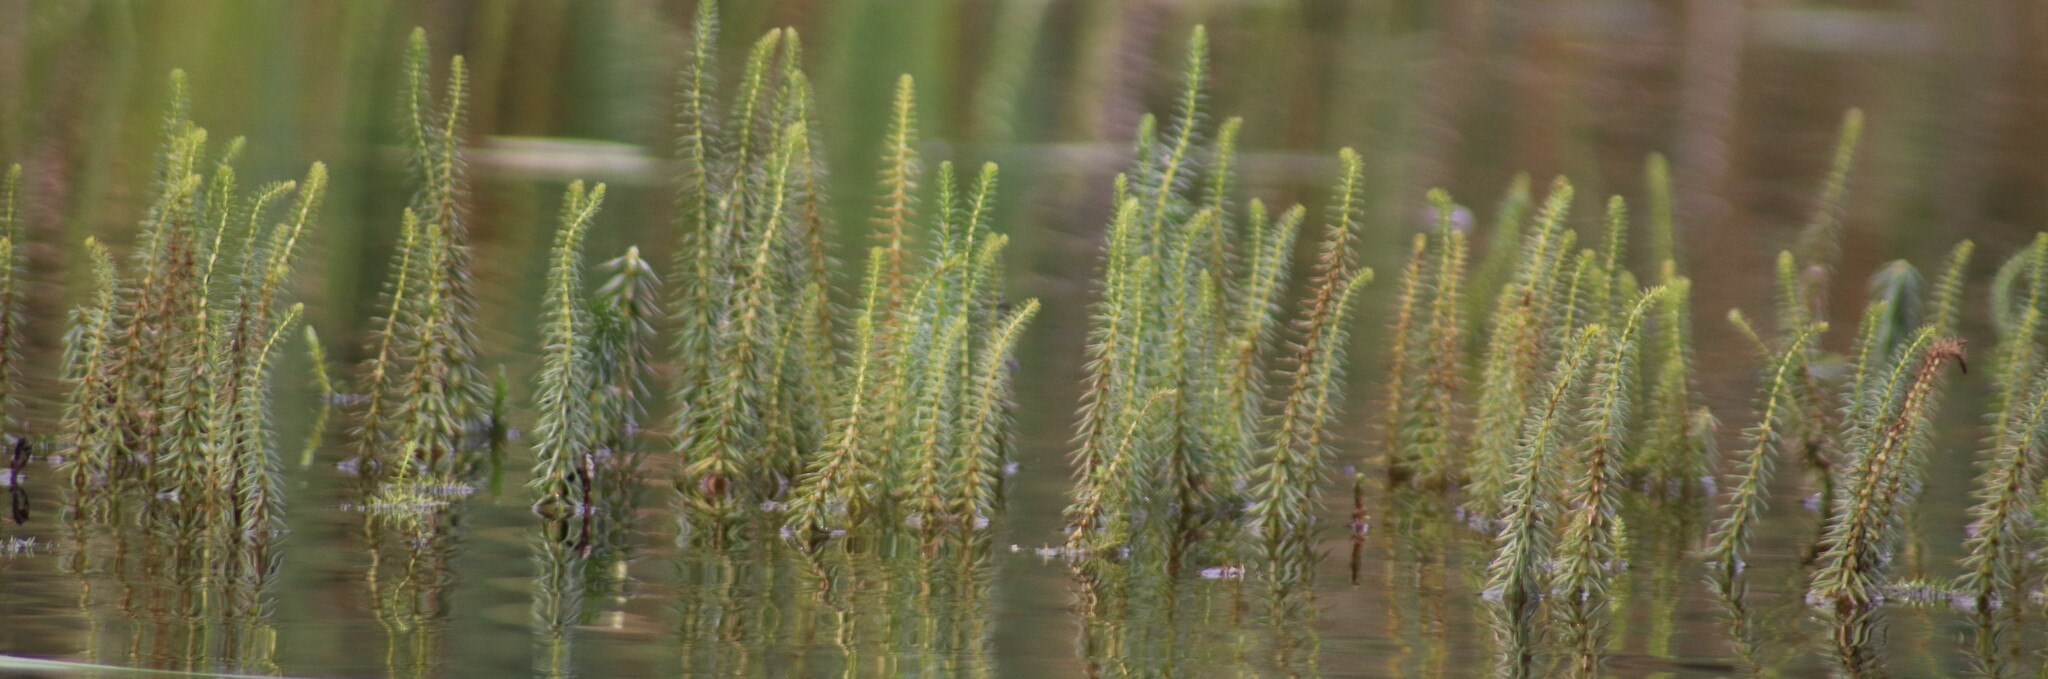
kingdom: Plantae
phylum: Tracheophyta
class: Magnoliopsida
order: Lamiales
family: Plantaginaceae
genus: Hippuris
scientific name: Hippuris vulgaris
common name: Mare's-tail
